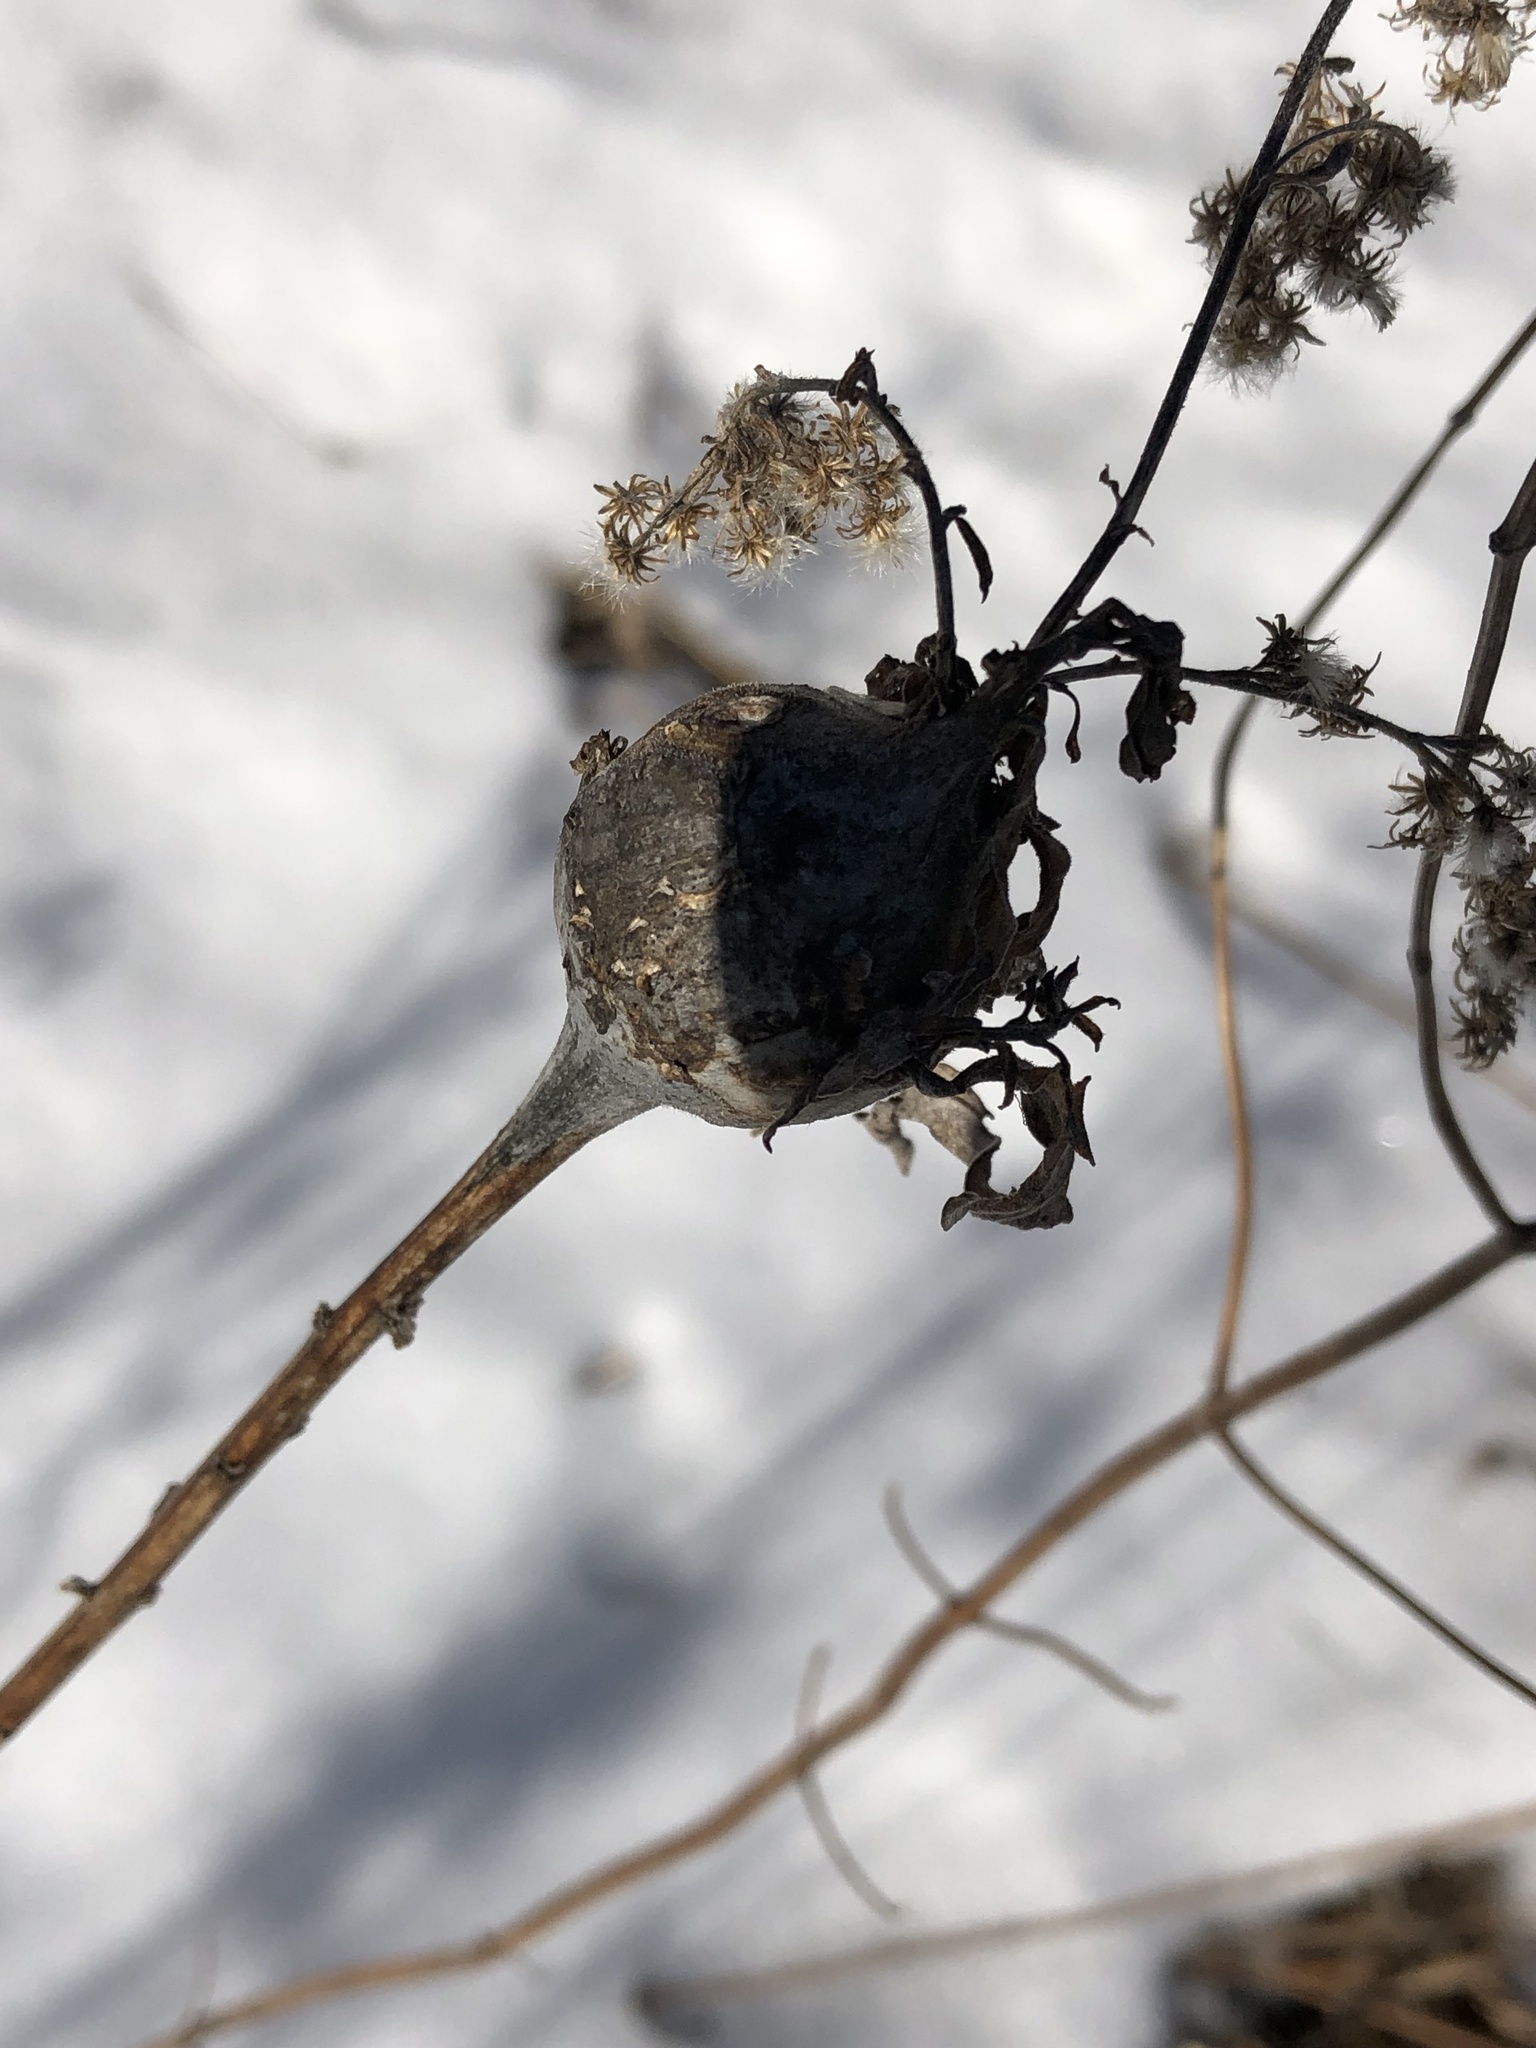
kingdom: Animalia
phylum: Arthropoda
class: Insecta
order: Diptera
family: Tephritidae
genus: Eurosta
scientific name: Eurosta solidaginis
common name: Goldenrod gall fly
